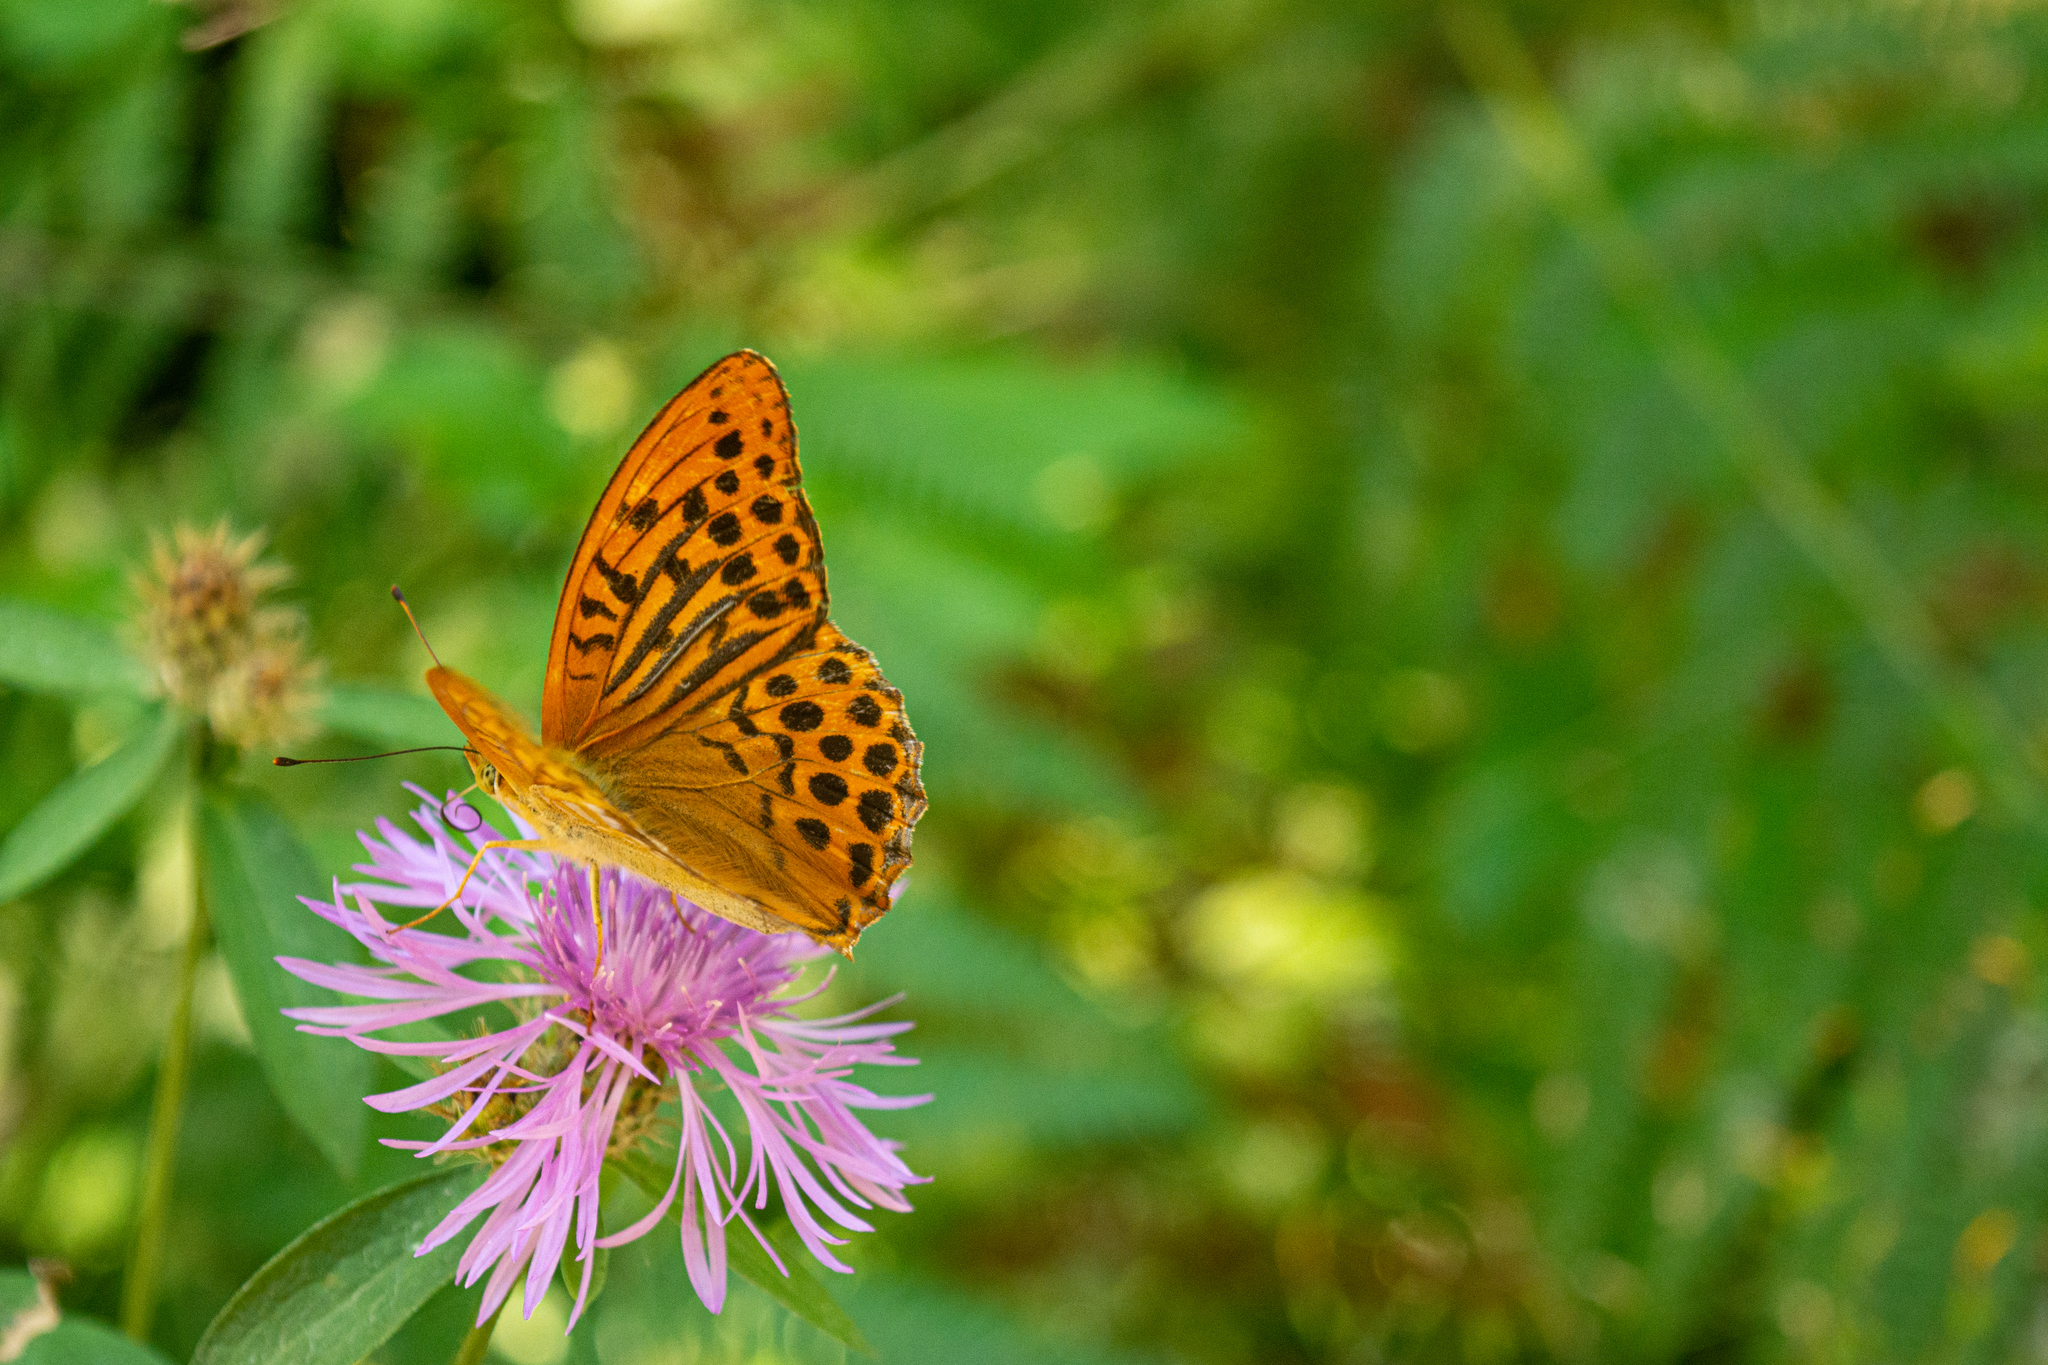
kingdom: Animalia
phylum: Arthropoda
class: Insecta
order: Lepidoptera
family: Nymphalidae
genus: Argynnis
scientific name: Argynnis paphia
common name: Silver-washed fritillary
